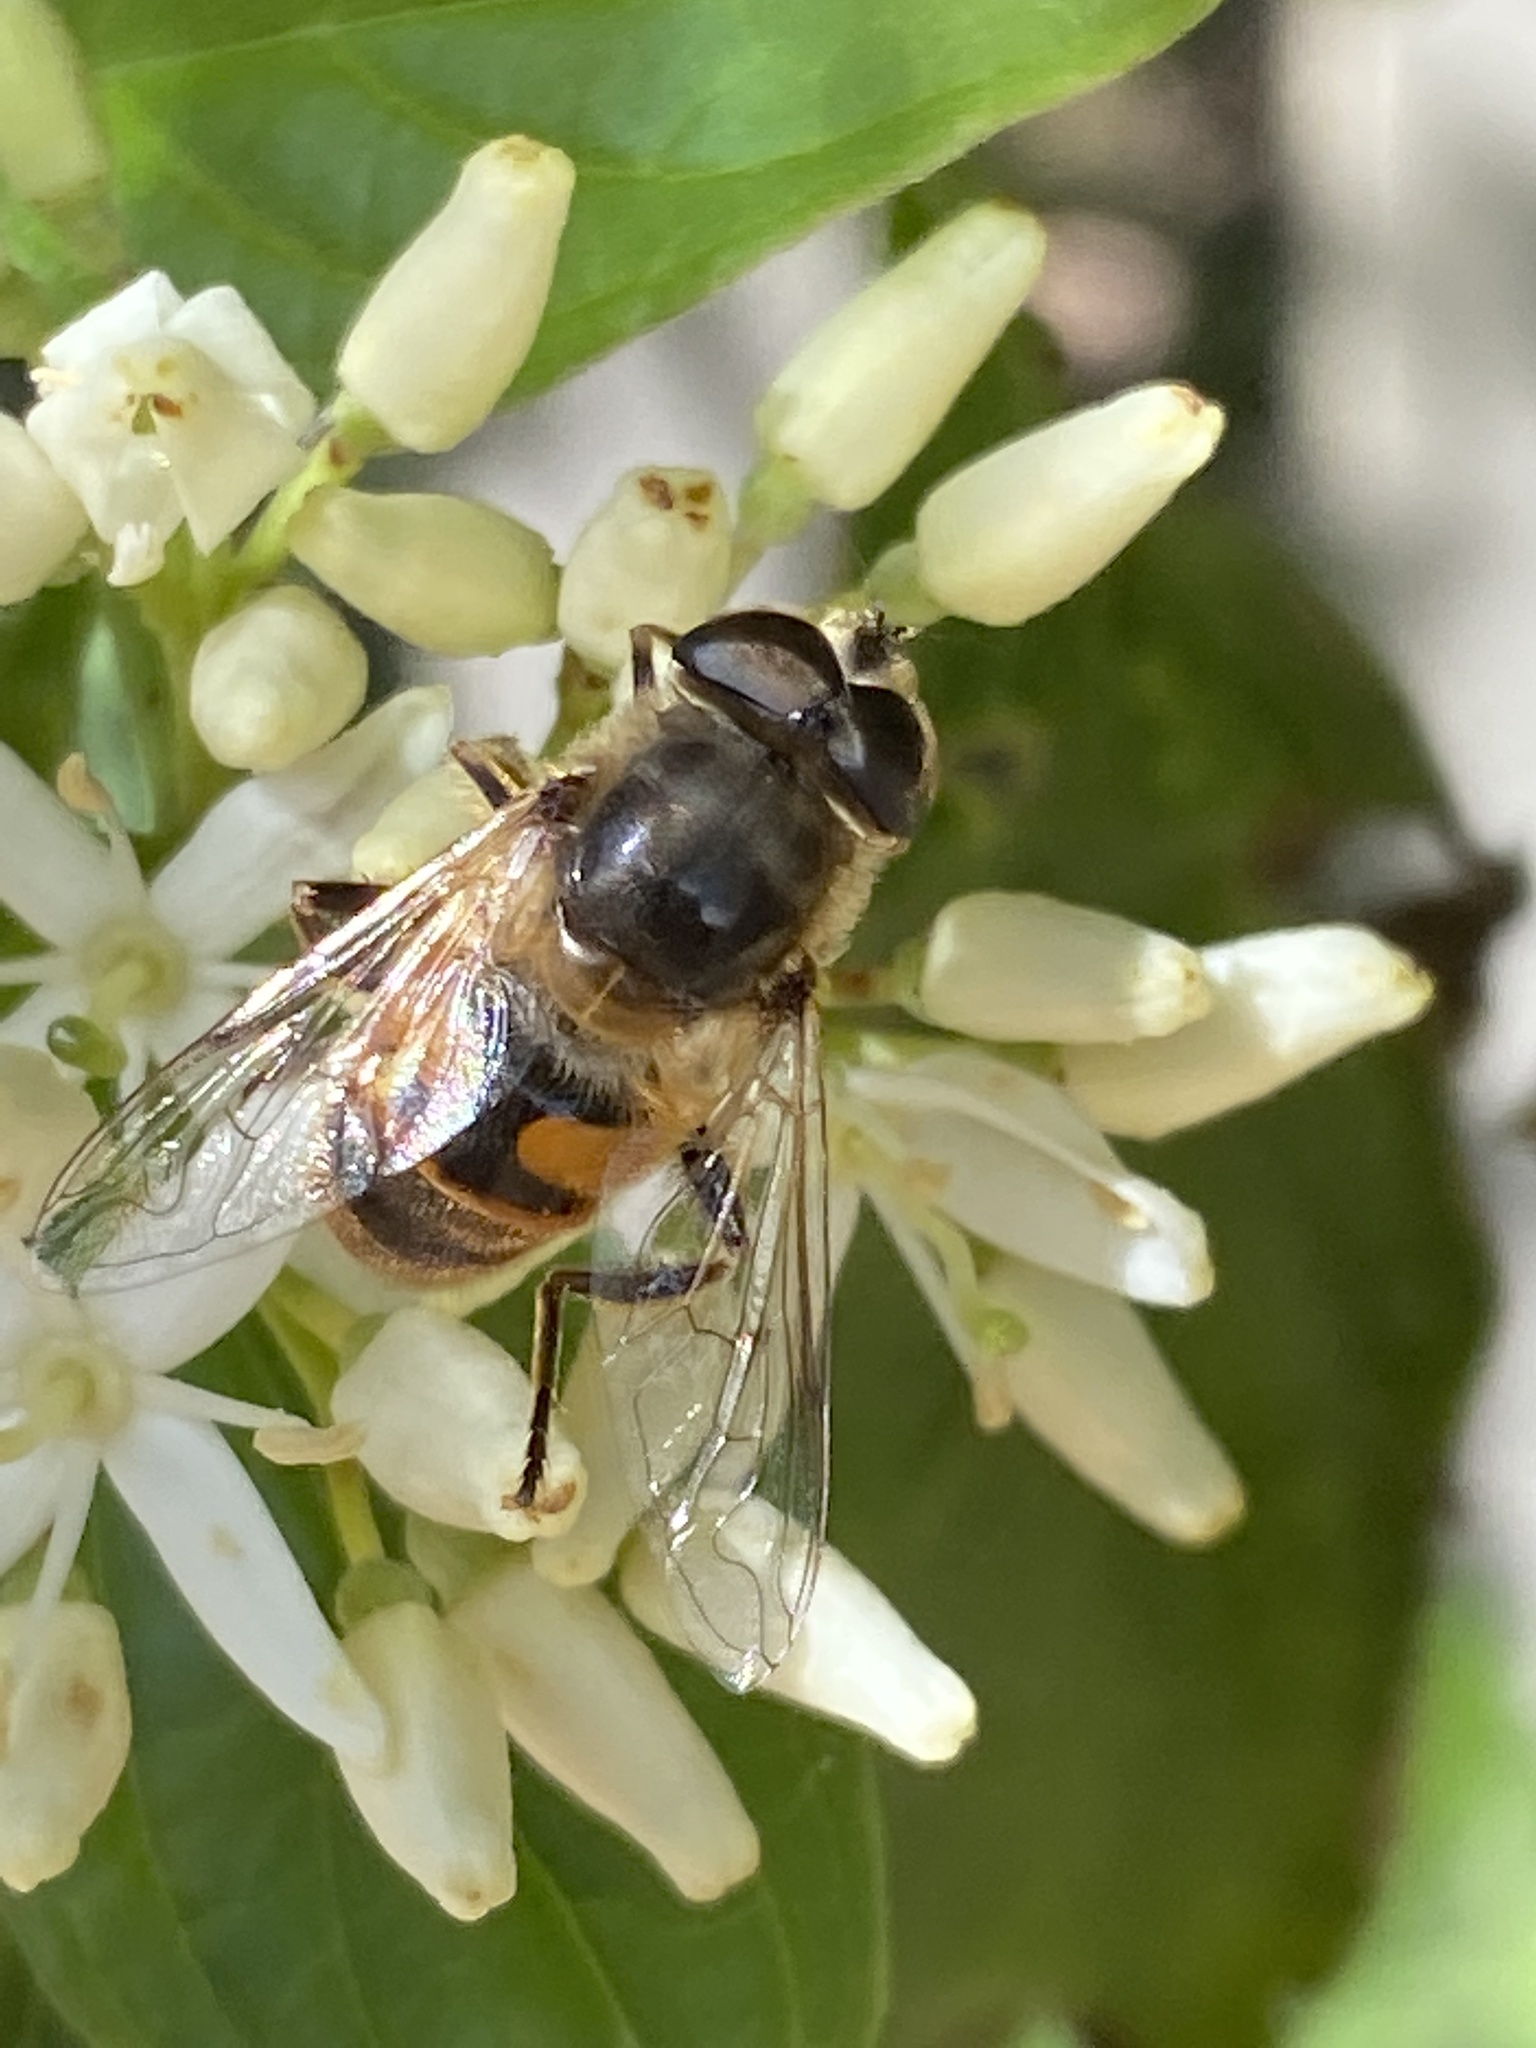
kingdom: Animalia
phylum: Arthropoda
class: Insecta
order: Diptera
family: Syrphidae
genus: Eristalis
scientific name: Eristalis tenax
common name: Drone fly
